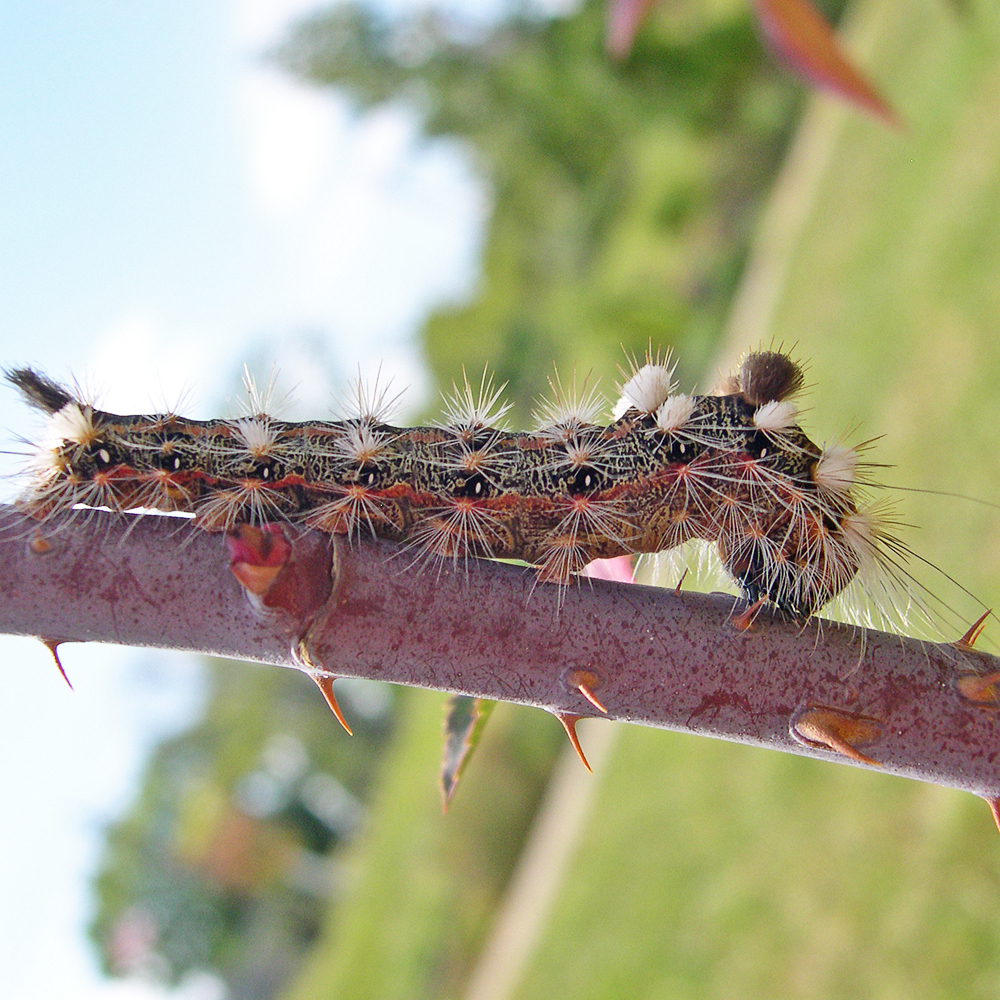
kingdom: Animalia
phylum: Arthropoda
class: Insecta
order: Lepidoptera
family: Noctuidae
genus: Acronicta
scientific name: Acronicta impleta
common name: Powdered dagger
